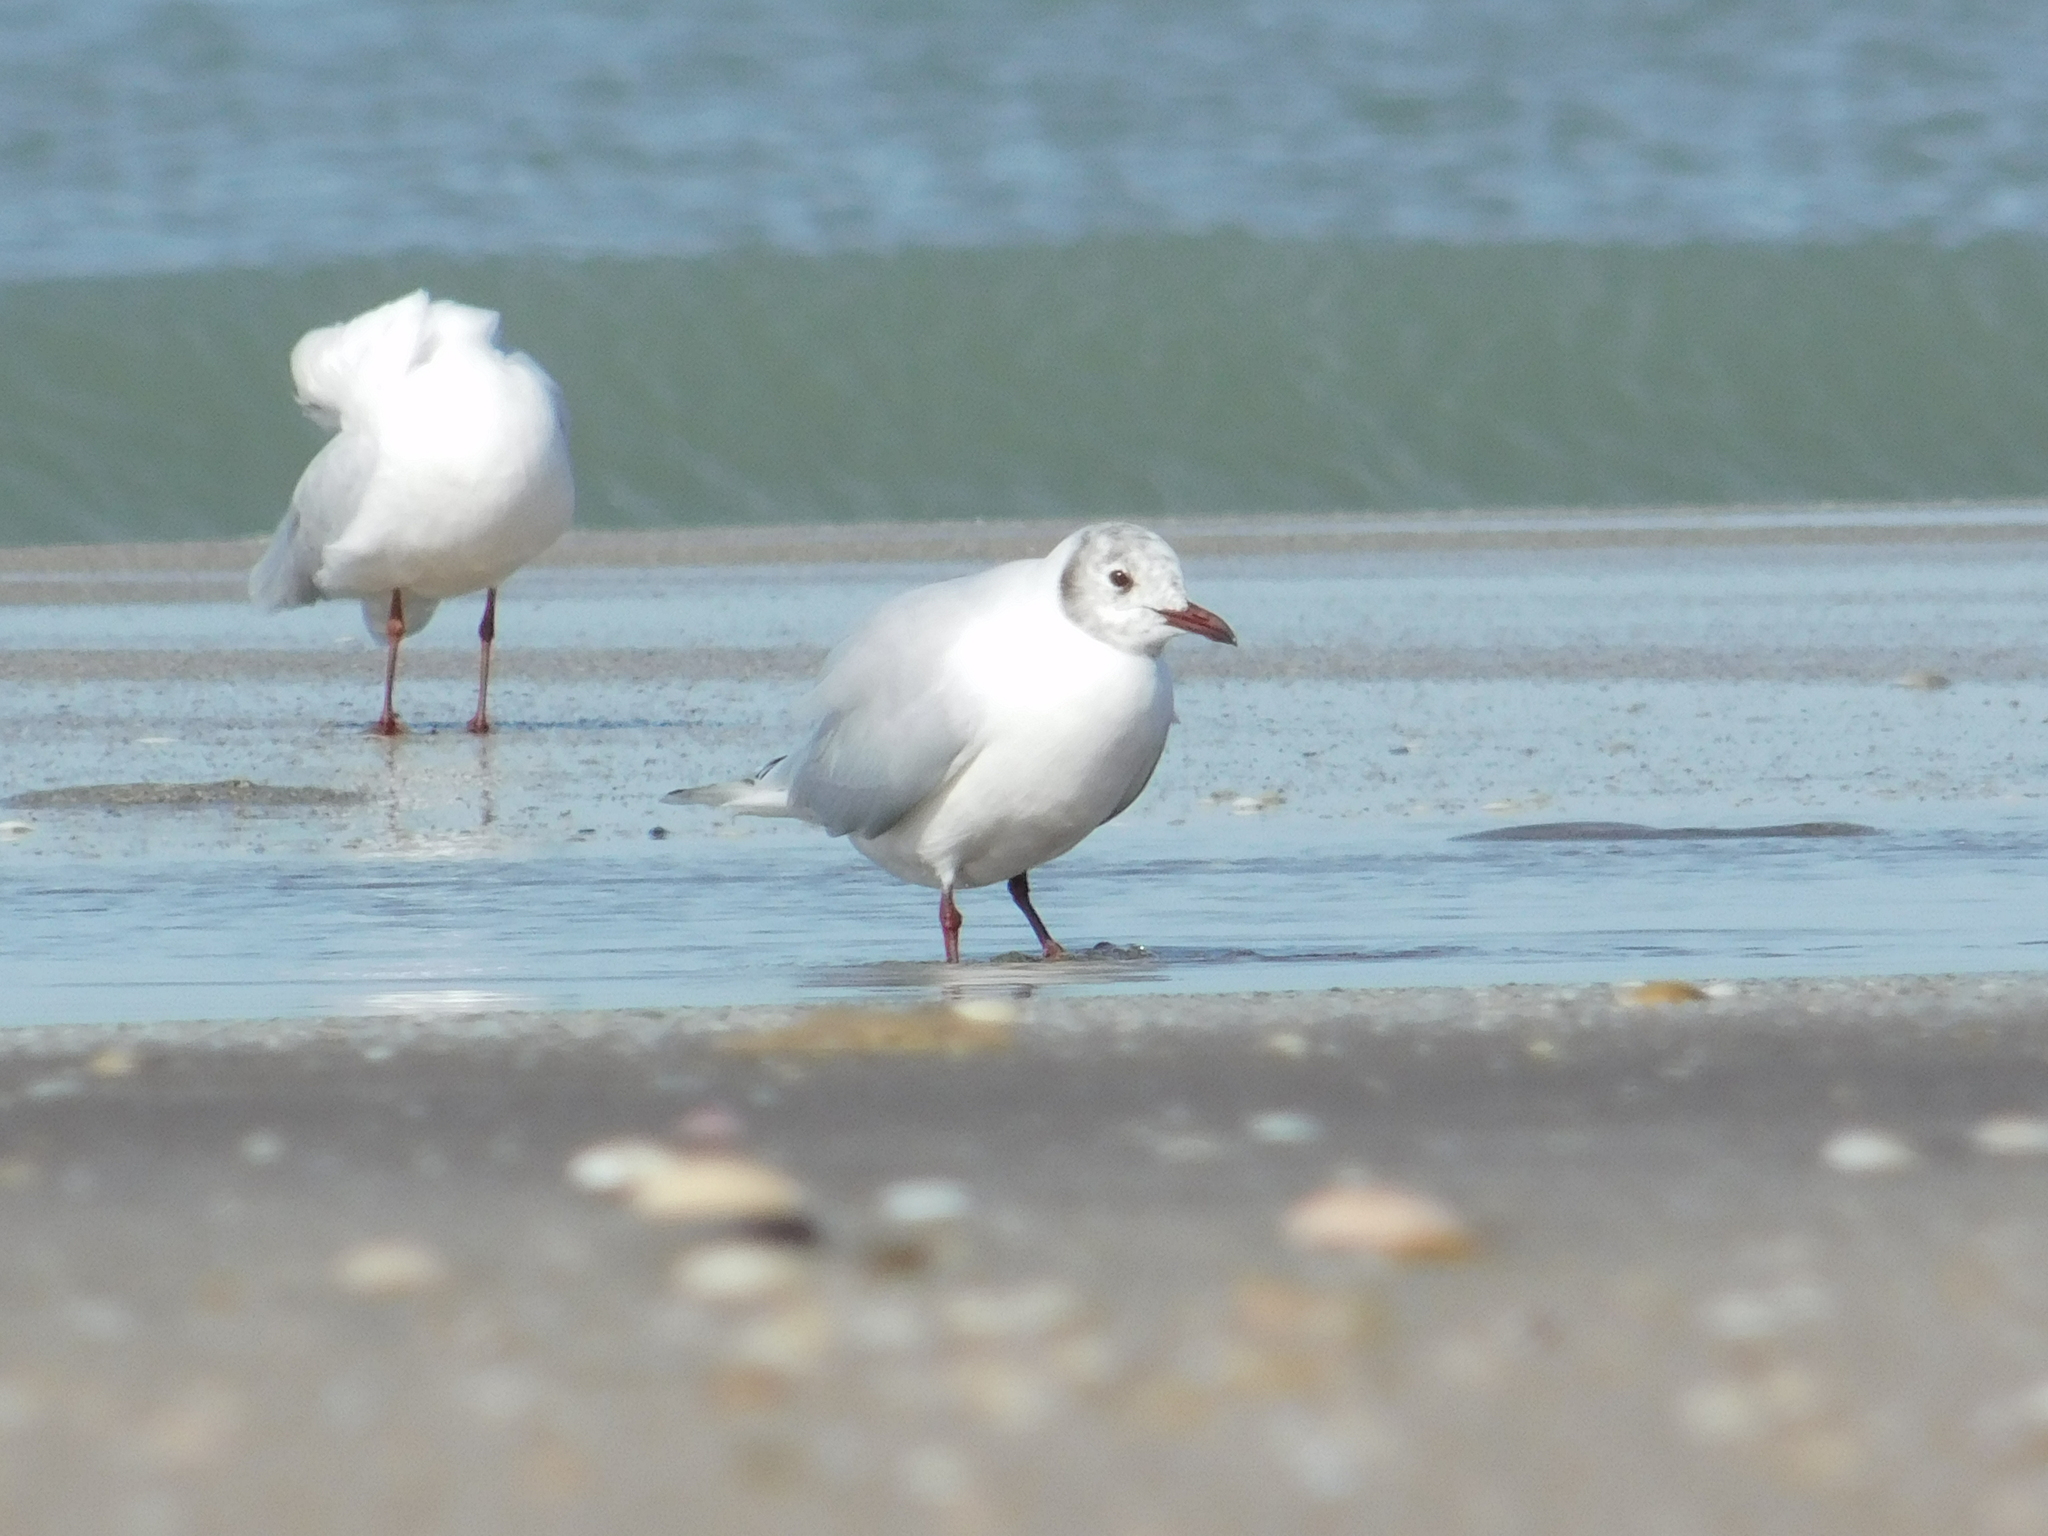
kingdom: Animalia
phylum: Chordata
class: Aves
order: Charadriiformes
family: Laridae
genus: Chroicocephalus
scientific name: Chroicocephalus maculipennis
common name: Brown-hooded gull
